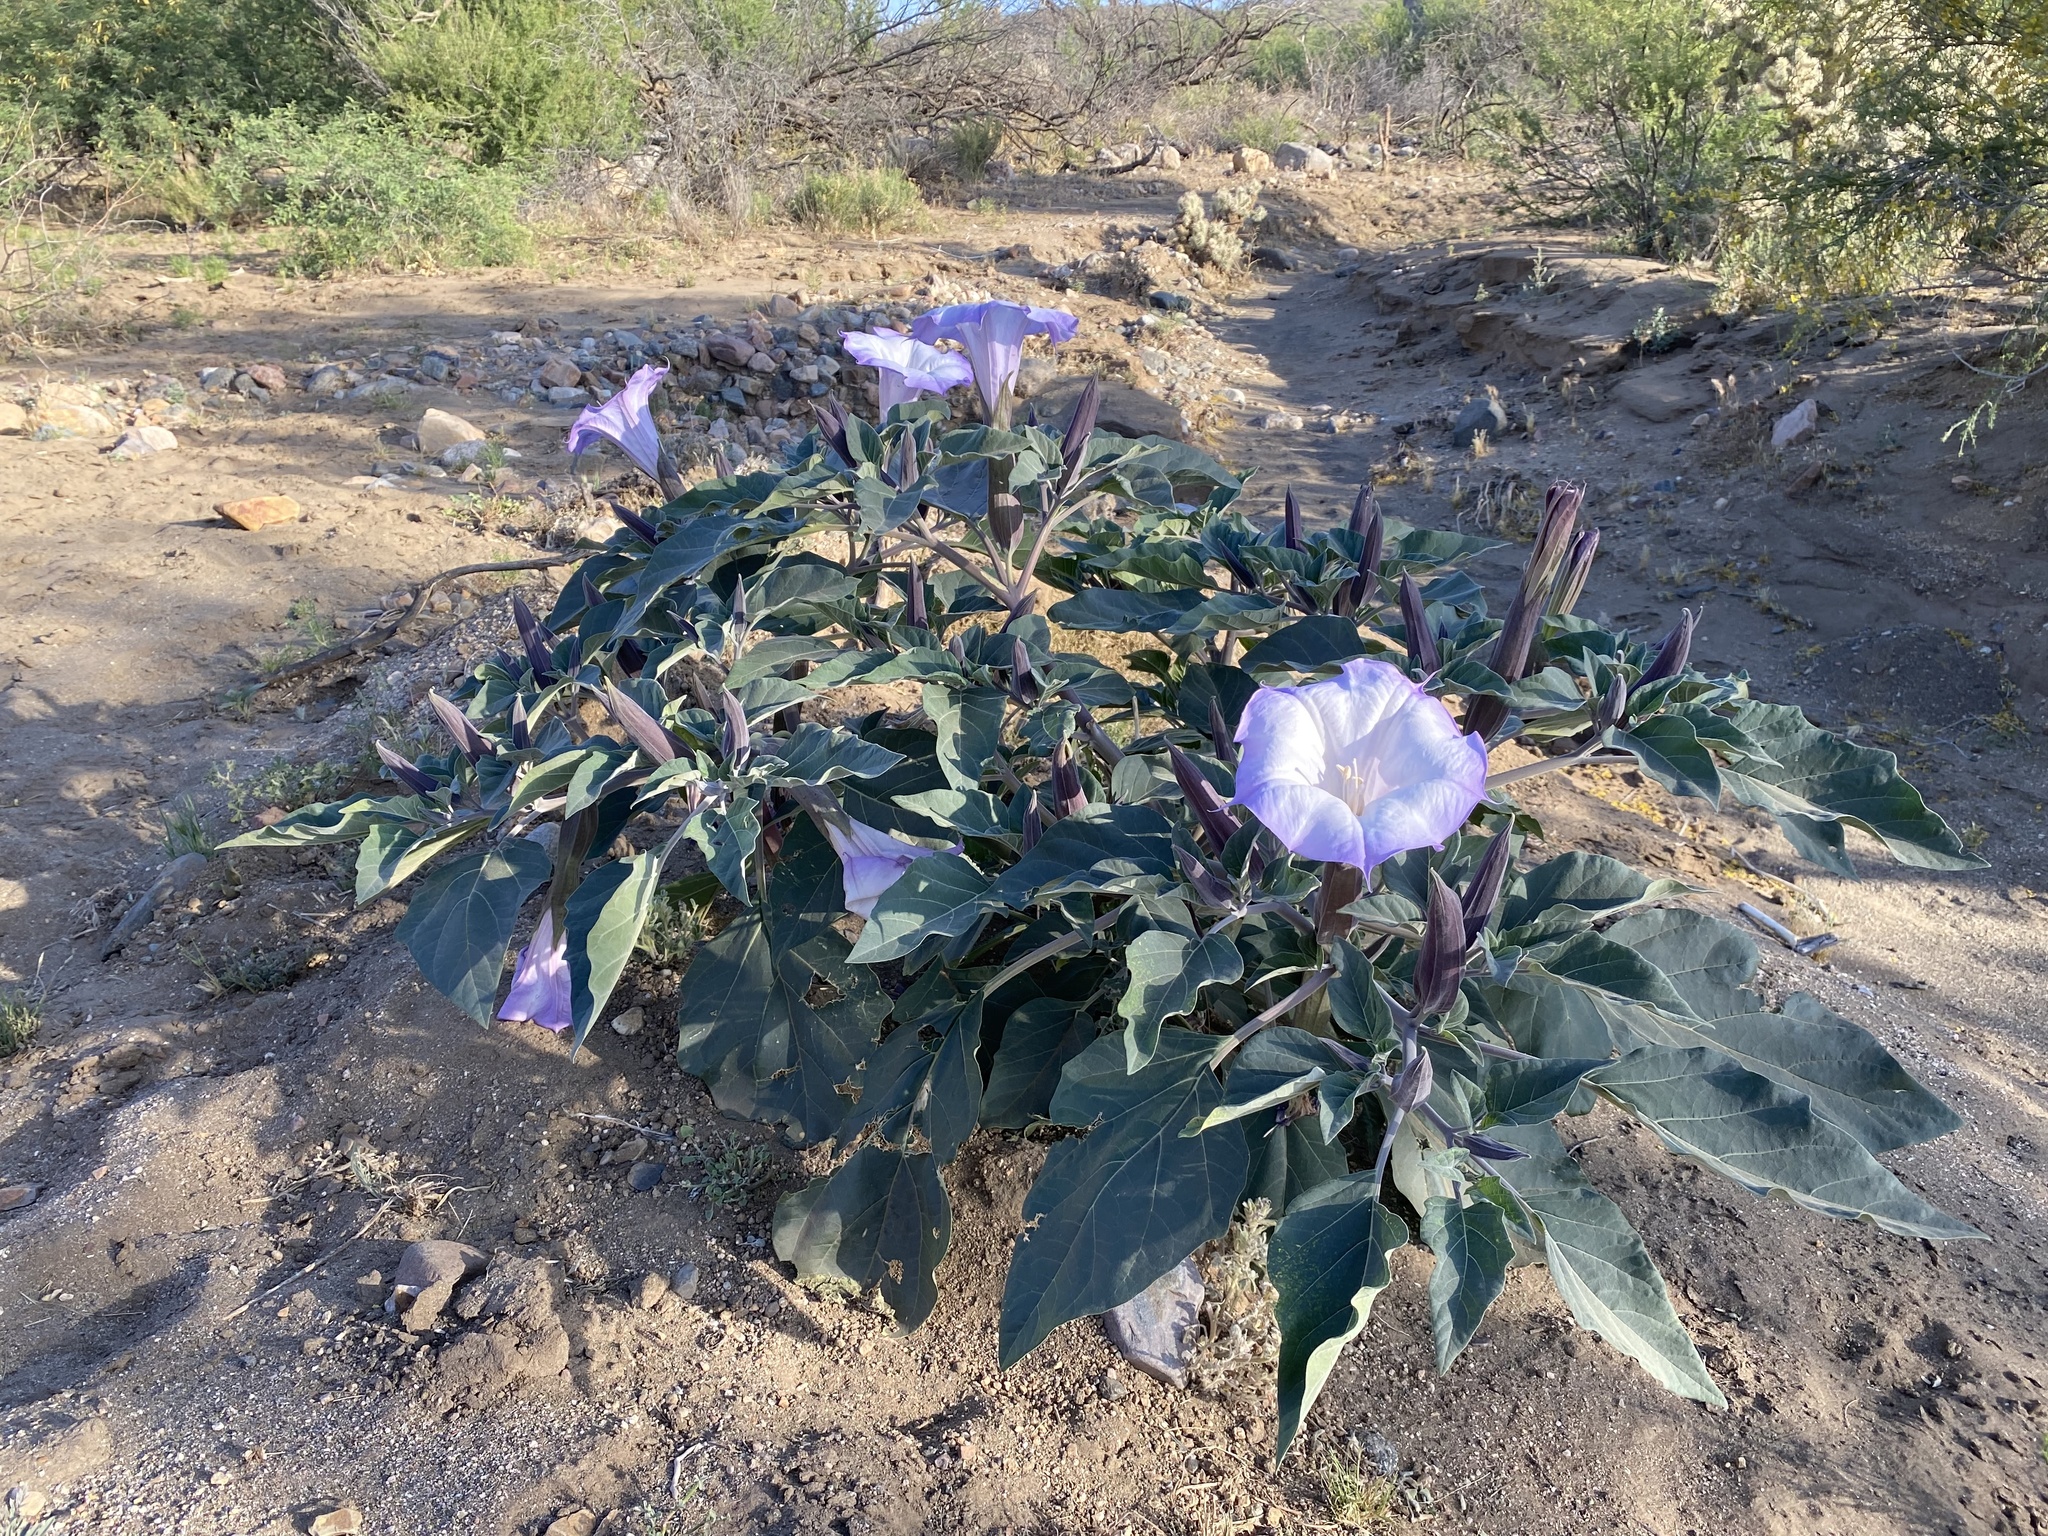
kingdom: Plantae
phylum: Tracheophyta
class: Magnoliopsida
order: Solanales
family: Solanaceae
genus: Datura
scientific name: Datura wrightii
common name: Sacred thorn-apple
